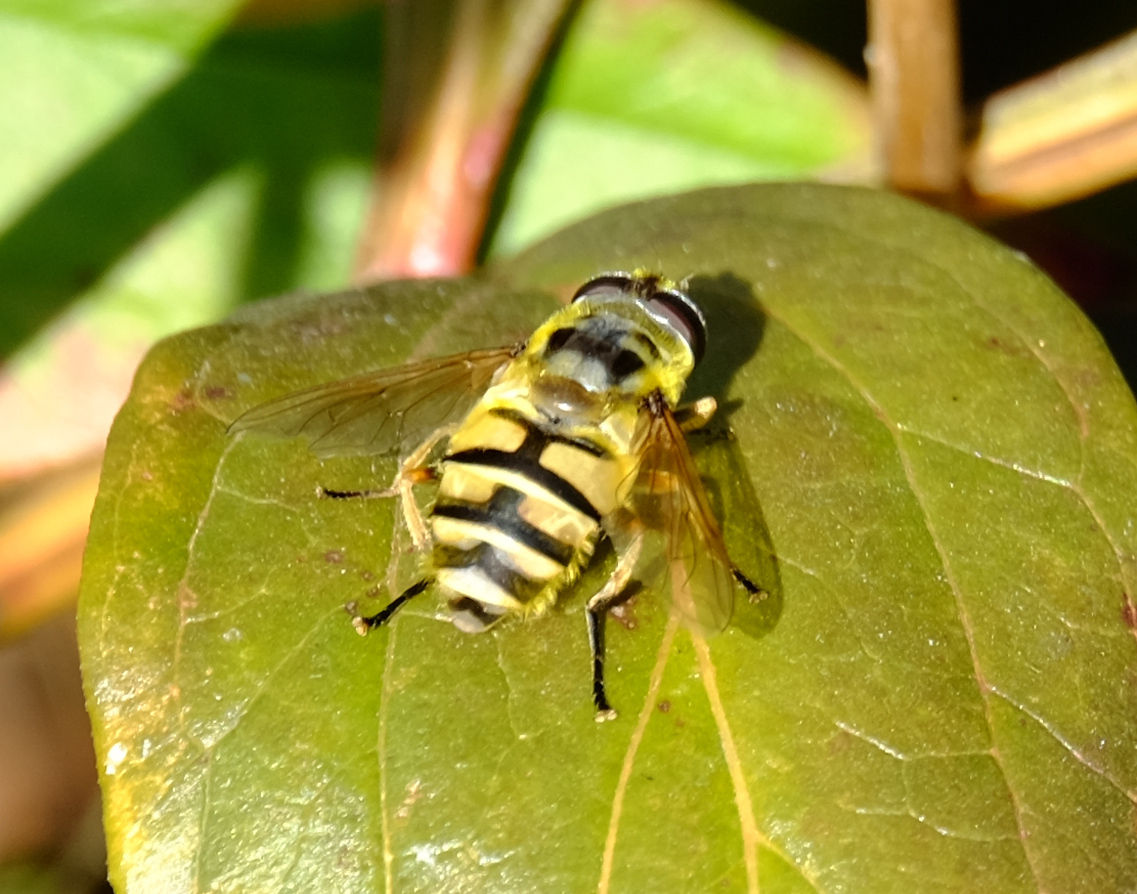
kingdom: Animalia
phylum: Arthropoda
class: Insecta
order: Diptera
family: Syrphidae
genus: Myathropa
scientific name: Myathropa florea
